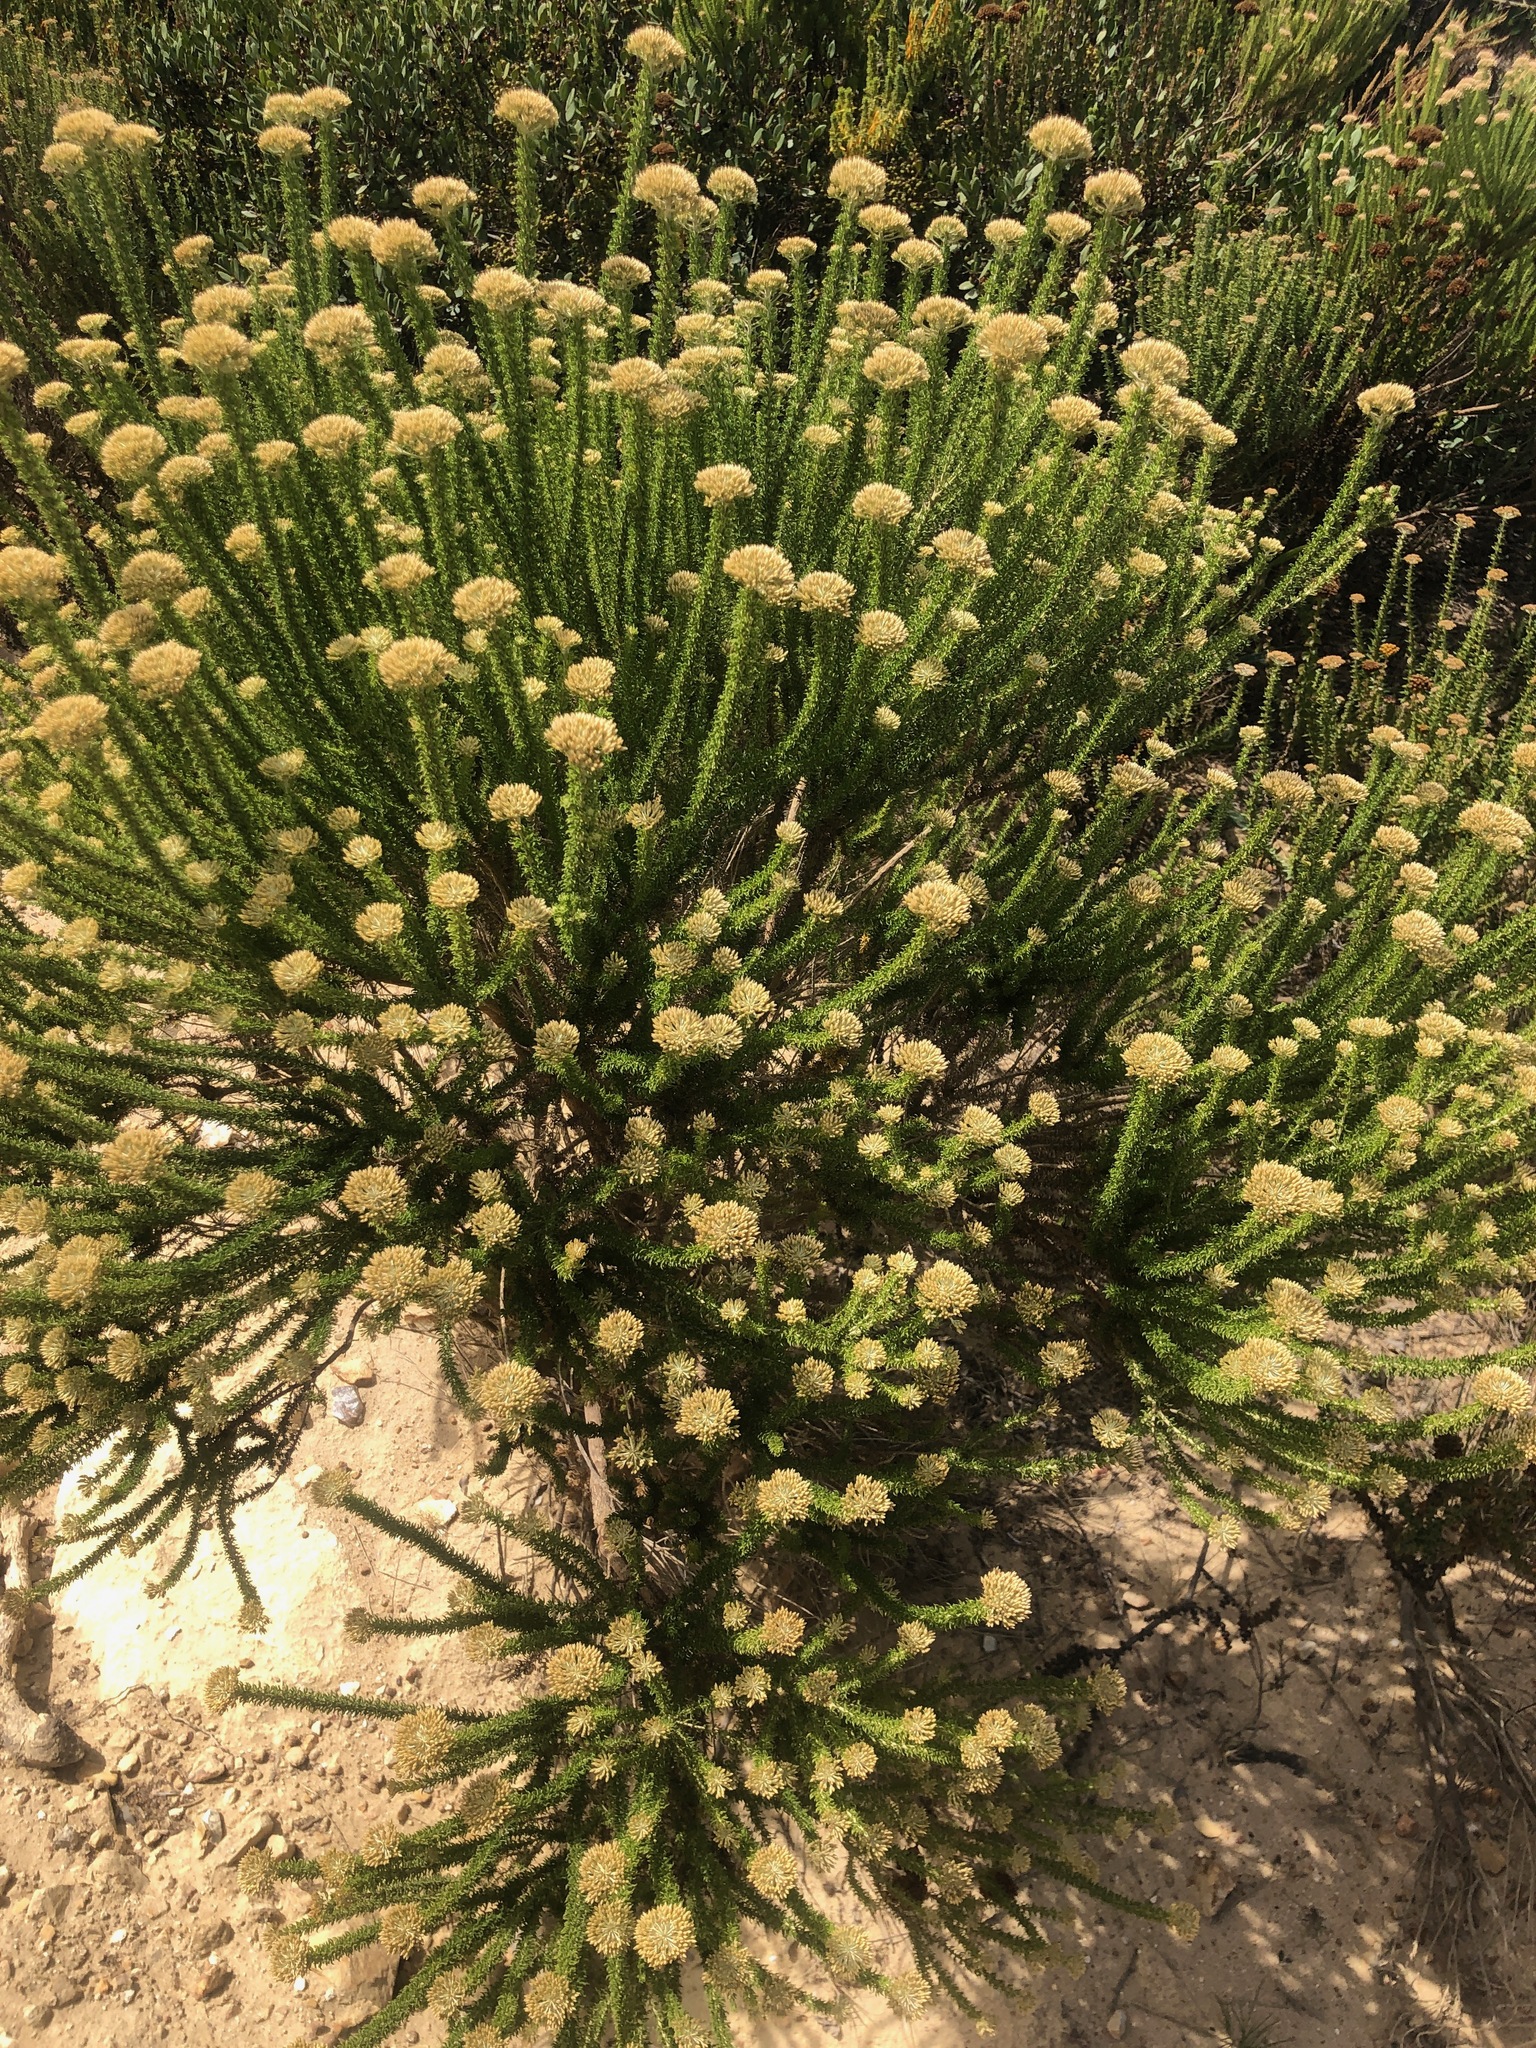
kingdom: Plantae
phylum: Tracheophyta
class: Magnoliopsida
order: Asterales
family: Asteraceae
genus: Metalasia
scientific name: Metalasia muricata
